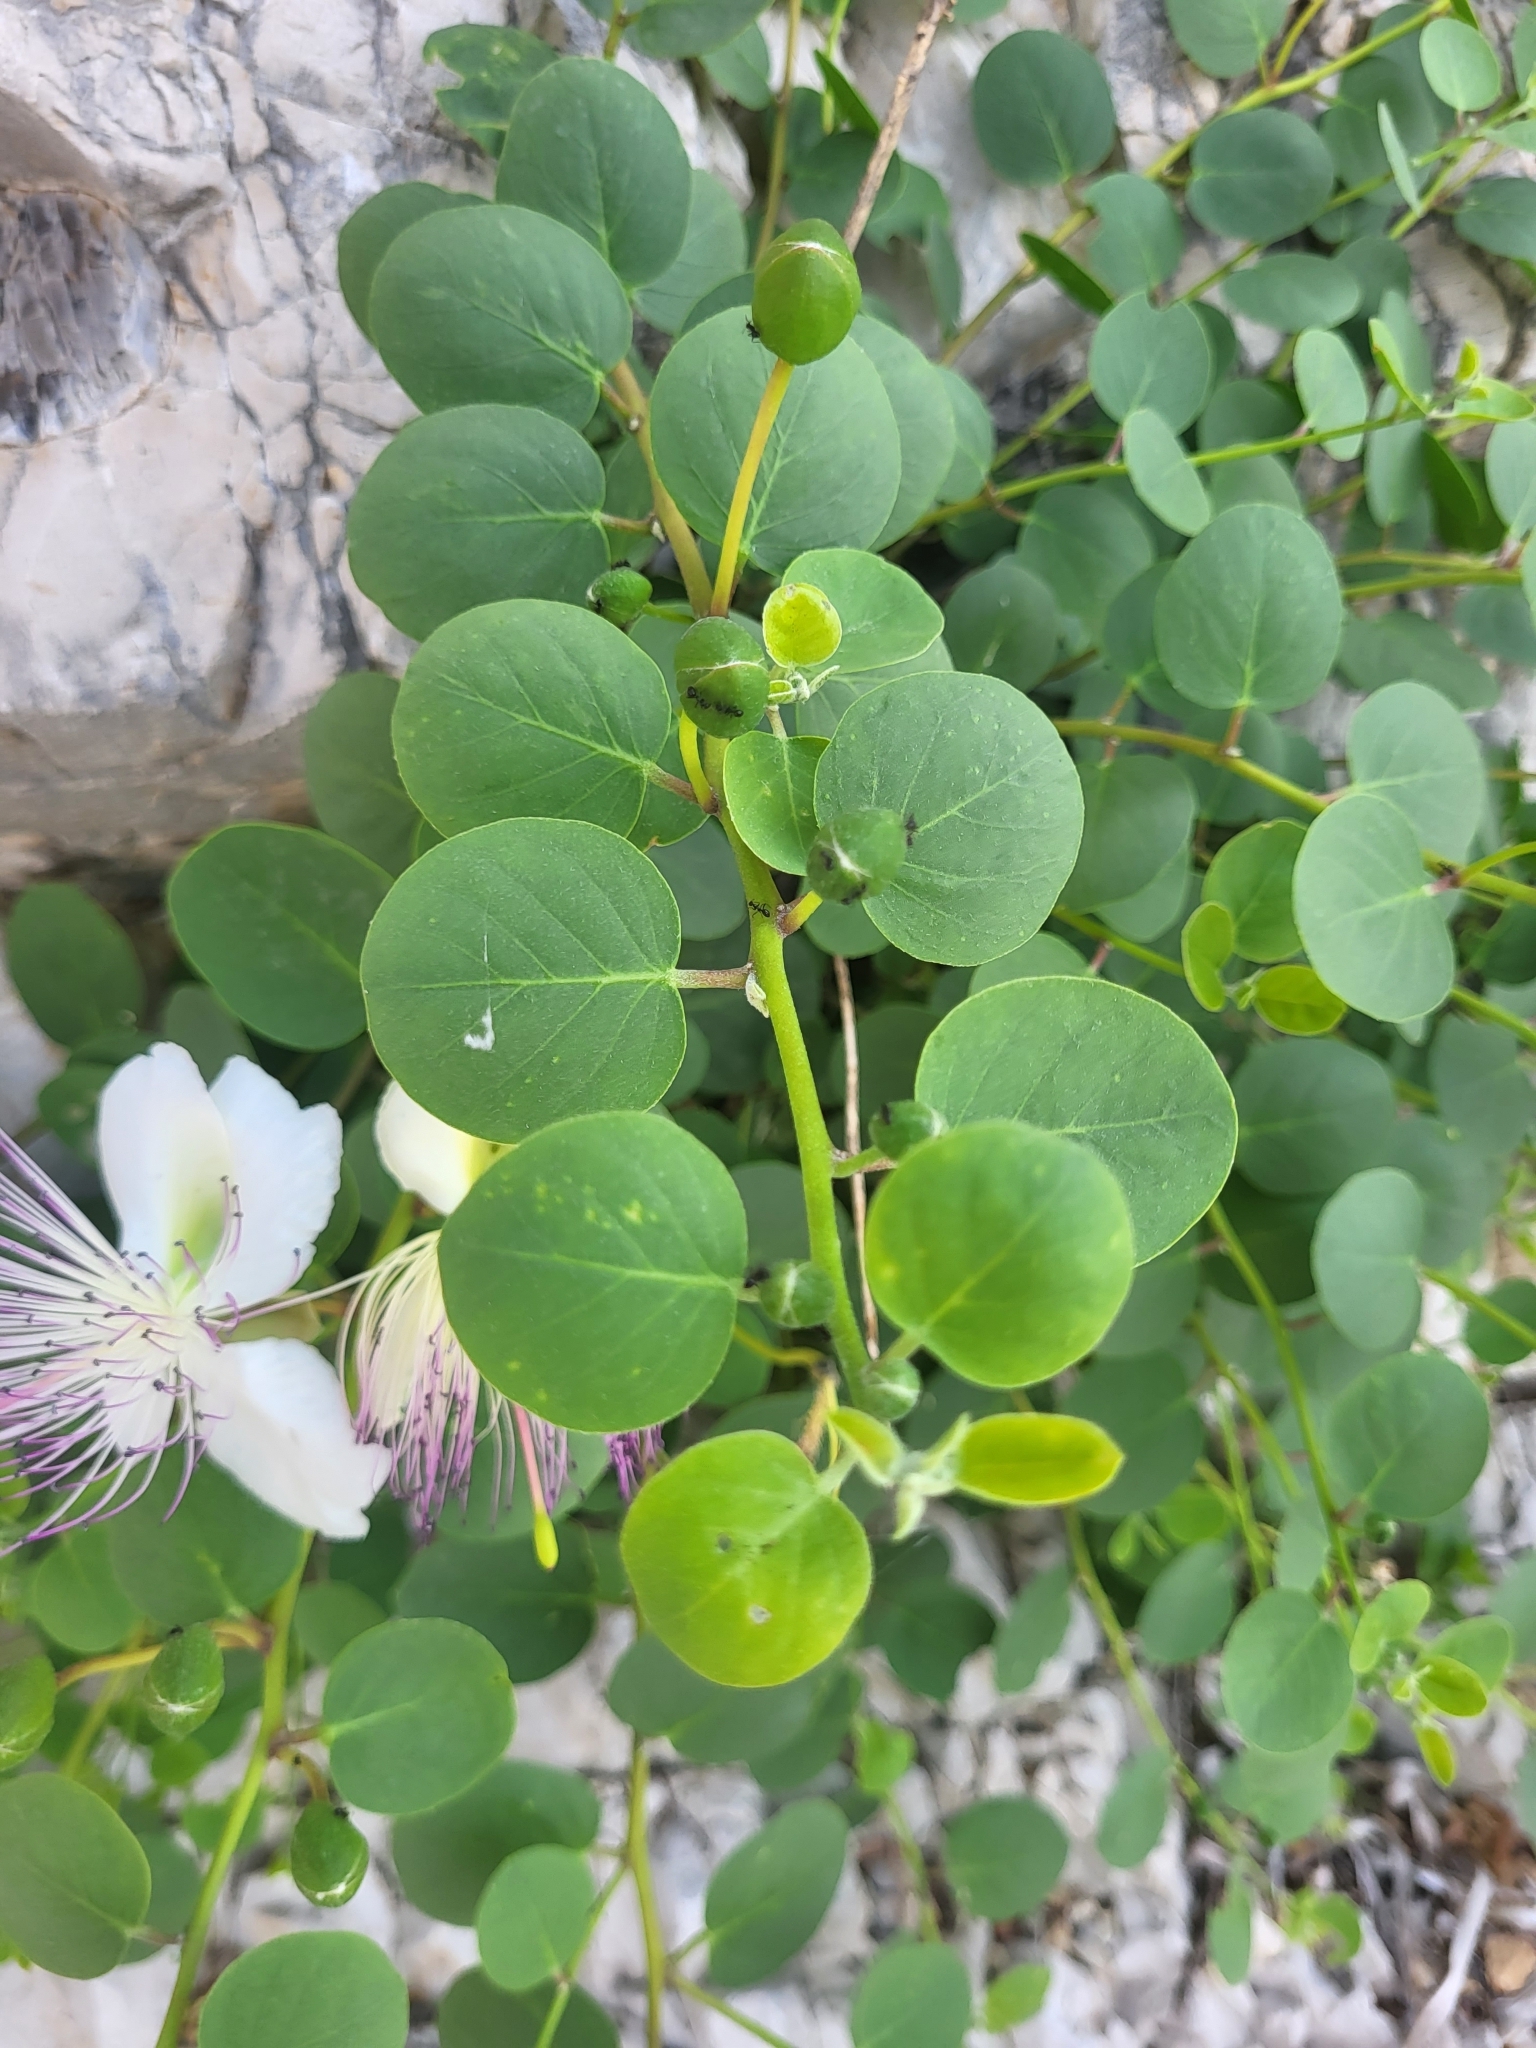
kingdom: Plantae
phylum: Tracheophyta
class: Magnoliopsida
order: Brassicales
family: Capparaceae
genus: Capparis
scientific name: Capparis orientalis
